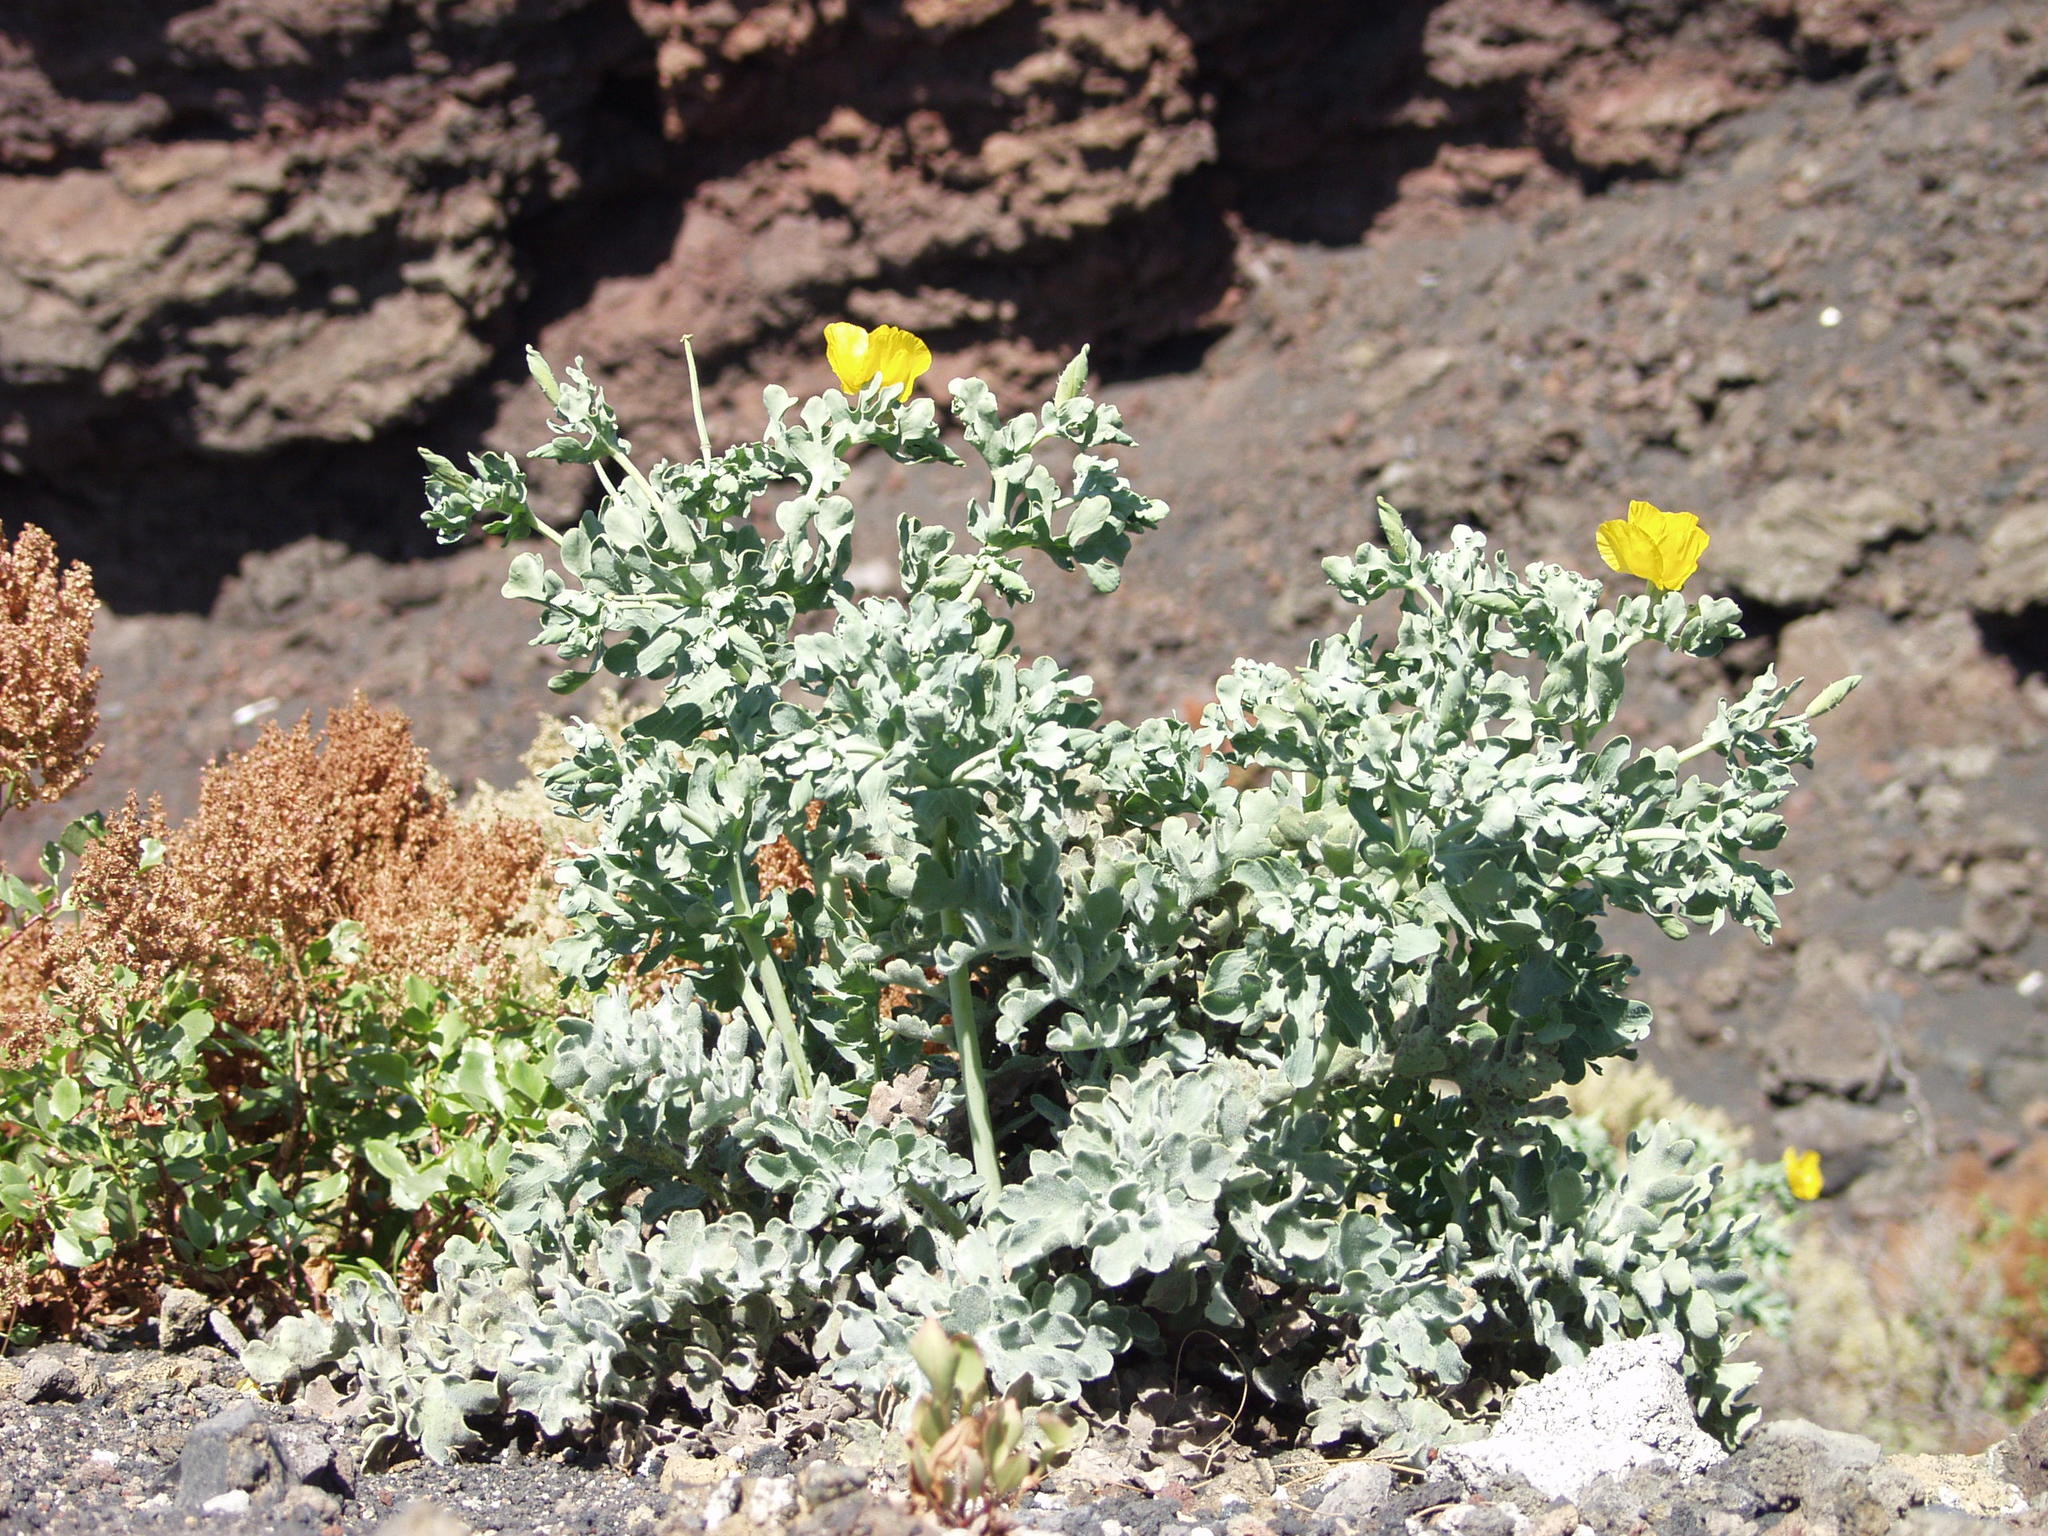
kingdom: Plantae
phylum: Tracheophyta
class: Magnoliopsida
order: Ranunculales
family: Papaveraceae
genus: Glaucium
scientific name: Glaucium flavum
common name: Yellow horned-poppy
